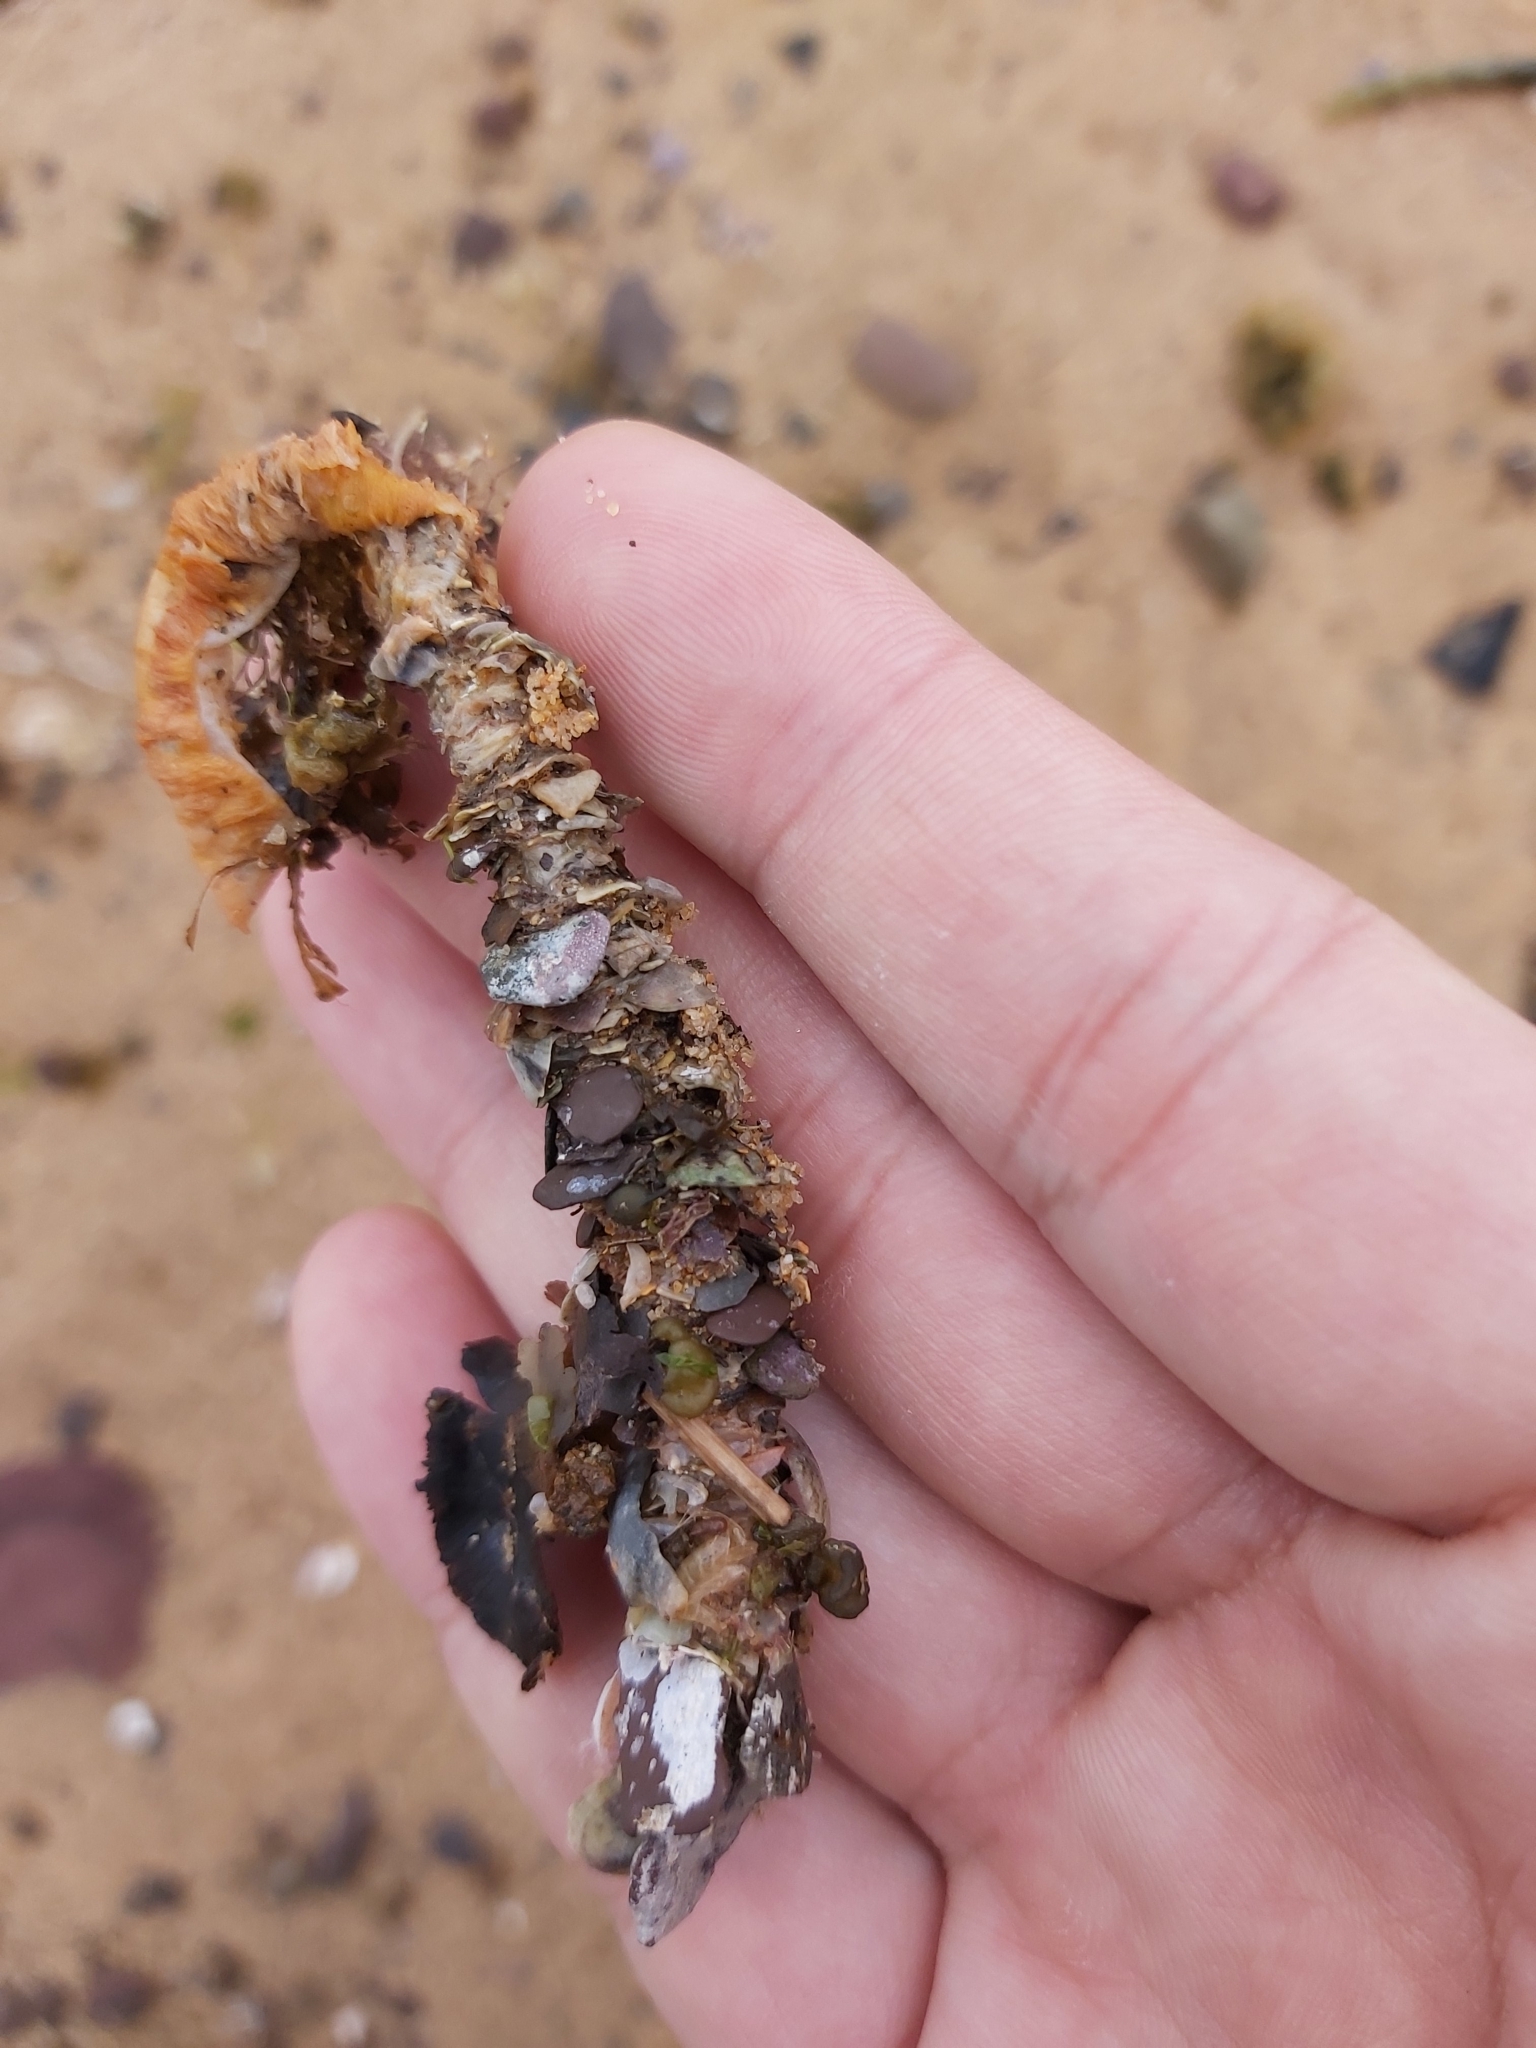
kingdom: Animalia
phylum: Annelida
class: Polychaeta
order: Eunicida
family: Onuphidae
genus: Diopatra
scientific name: Diopatra dentata
